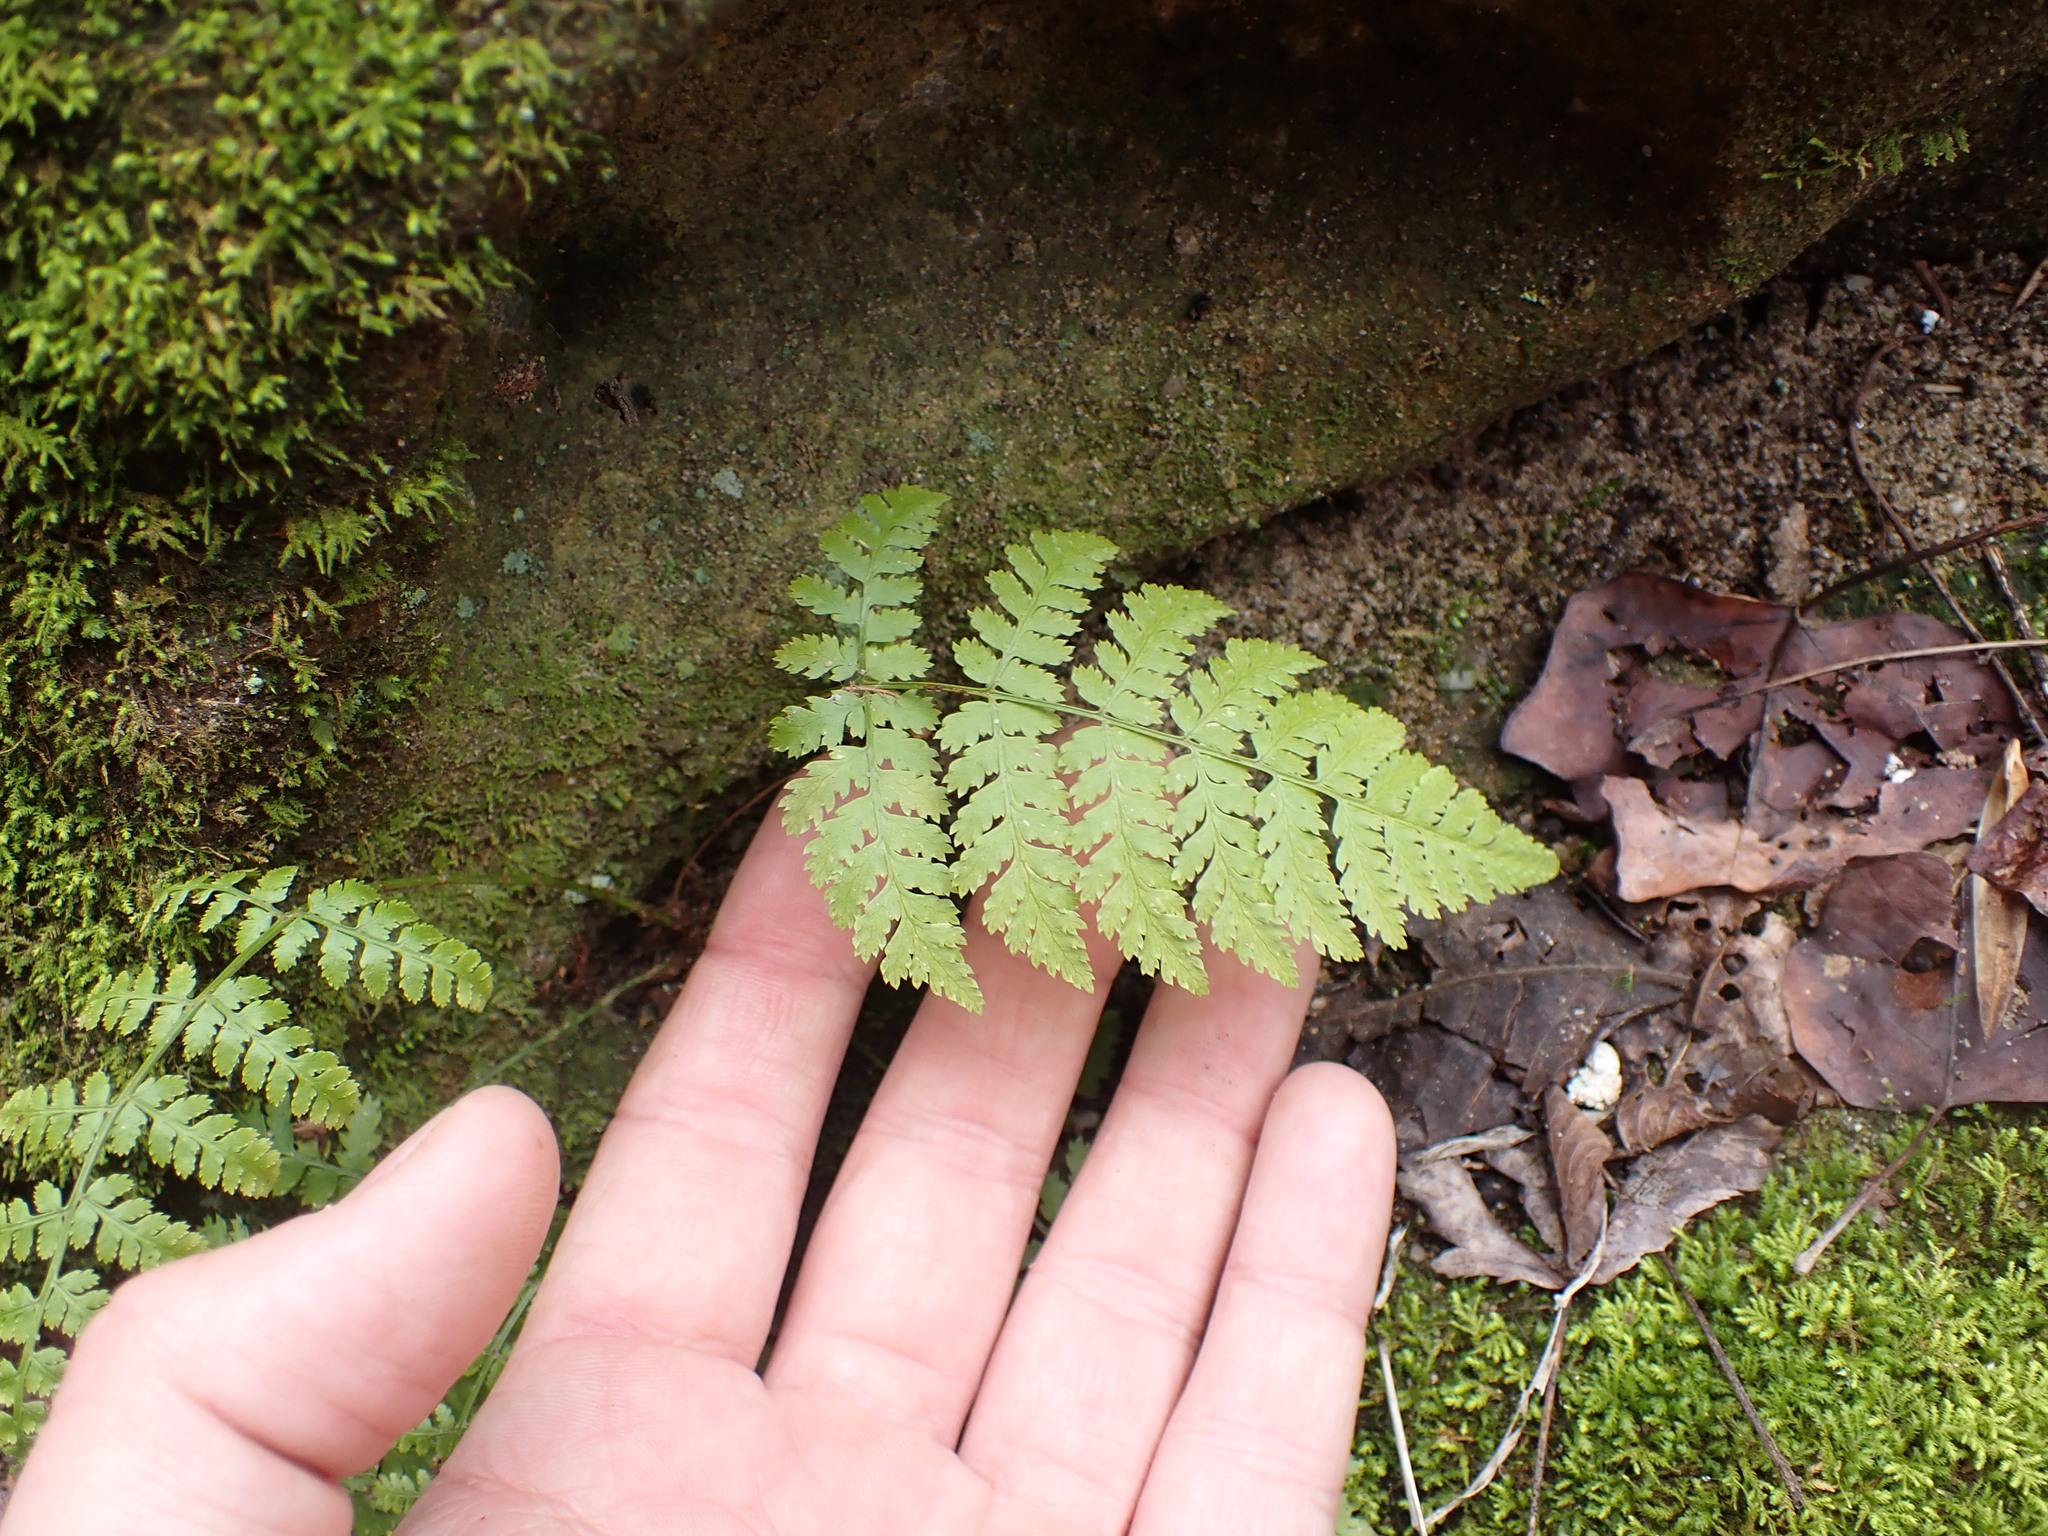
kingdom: Plantae
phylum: Tracheophyta
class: Polypodiopsida
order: Polypodiales
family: Dryopteridaceae
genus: Dryopteris
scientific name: Dryopteris intermedia
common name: Evergreen wood fern
